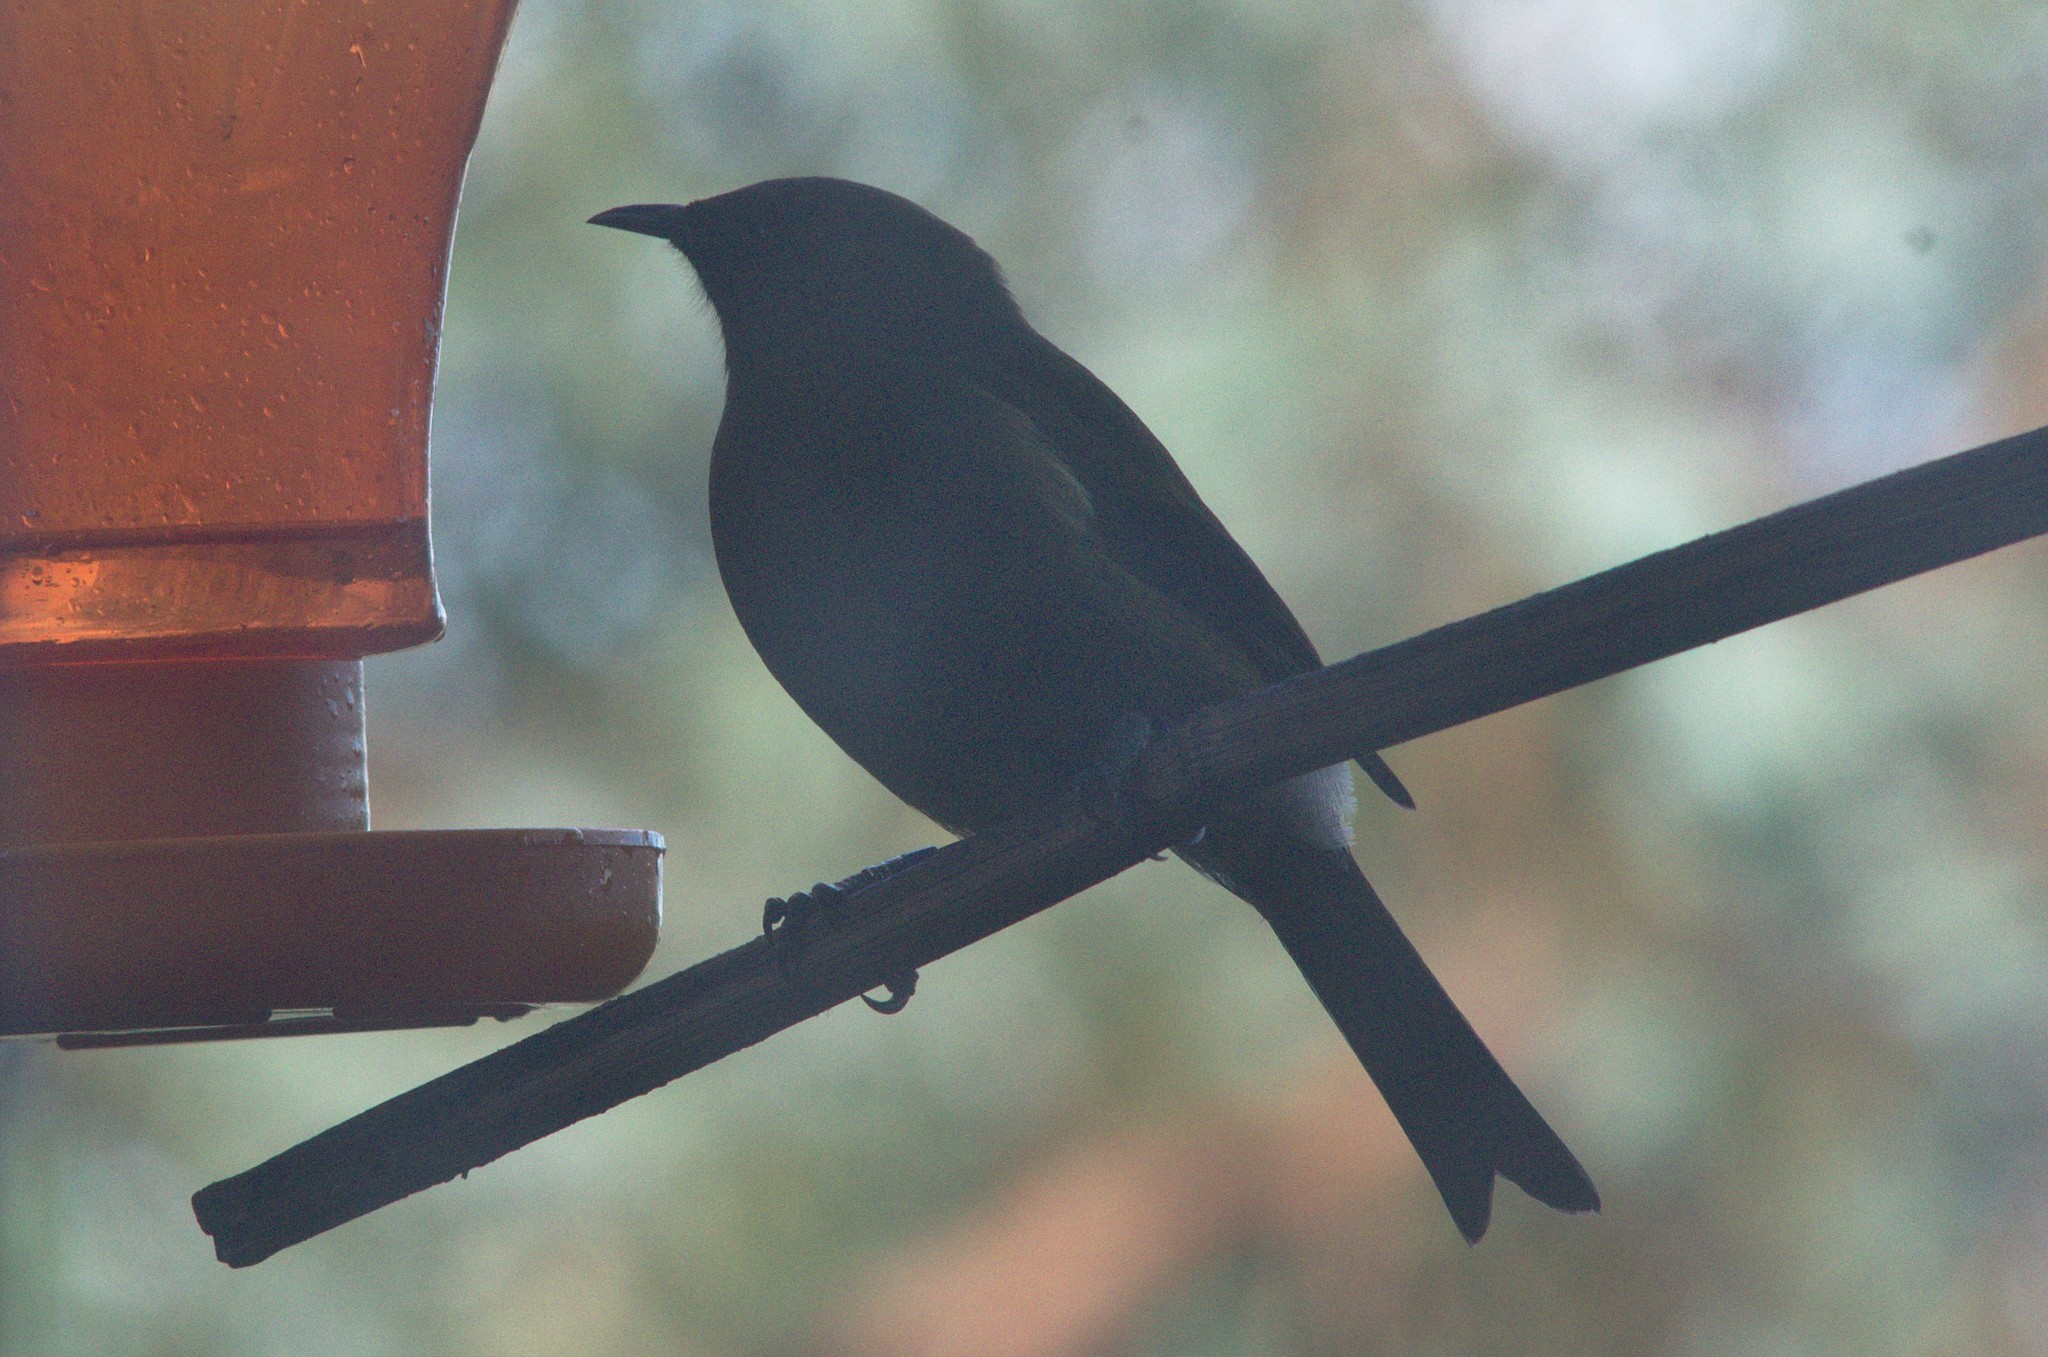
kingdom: Animalia
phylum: Chordata
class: Aves
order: Passeriformes
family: Meliphagidae
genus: Anthornis
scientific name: Anthornis melanura
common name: New zealand bellbird
